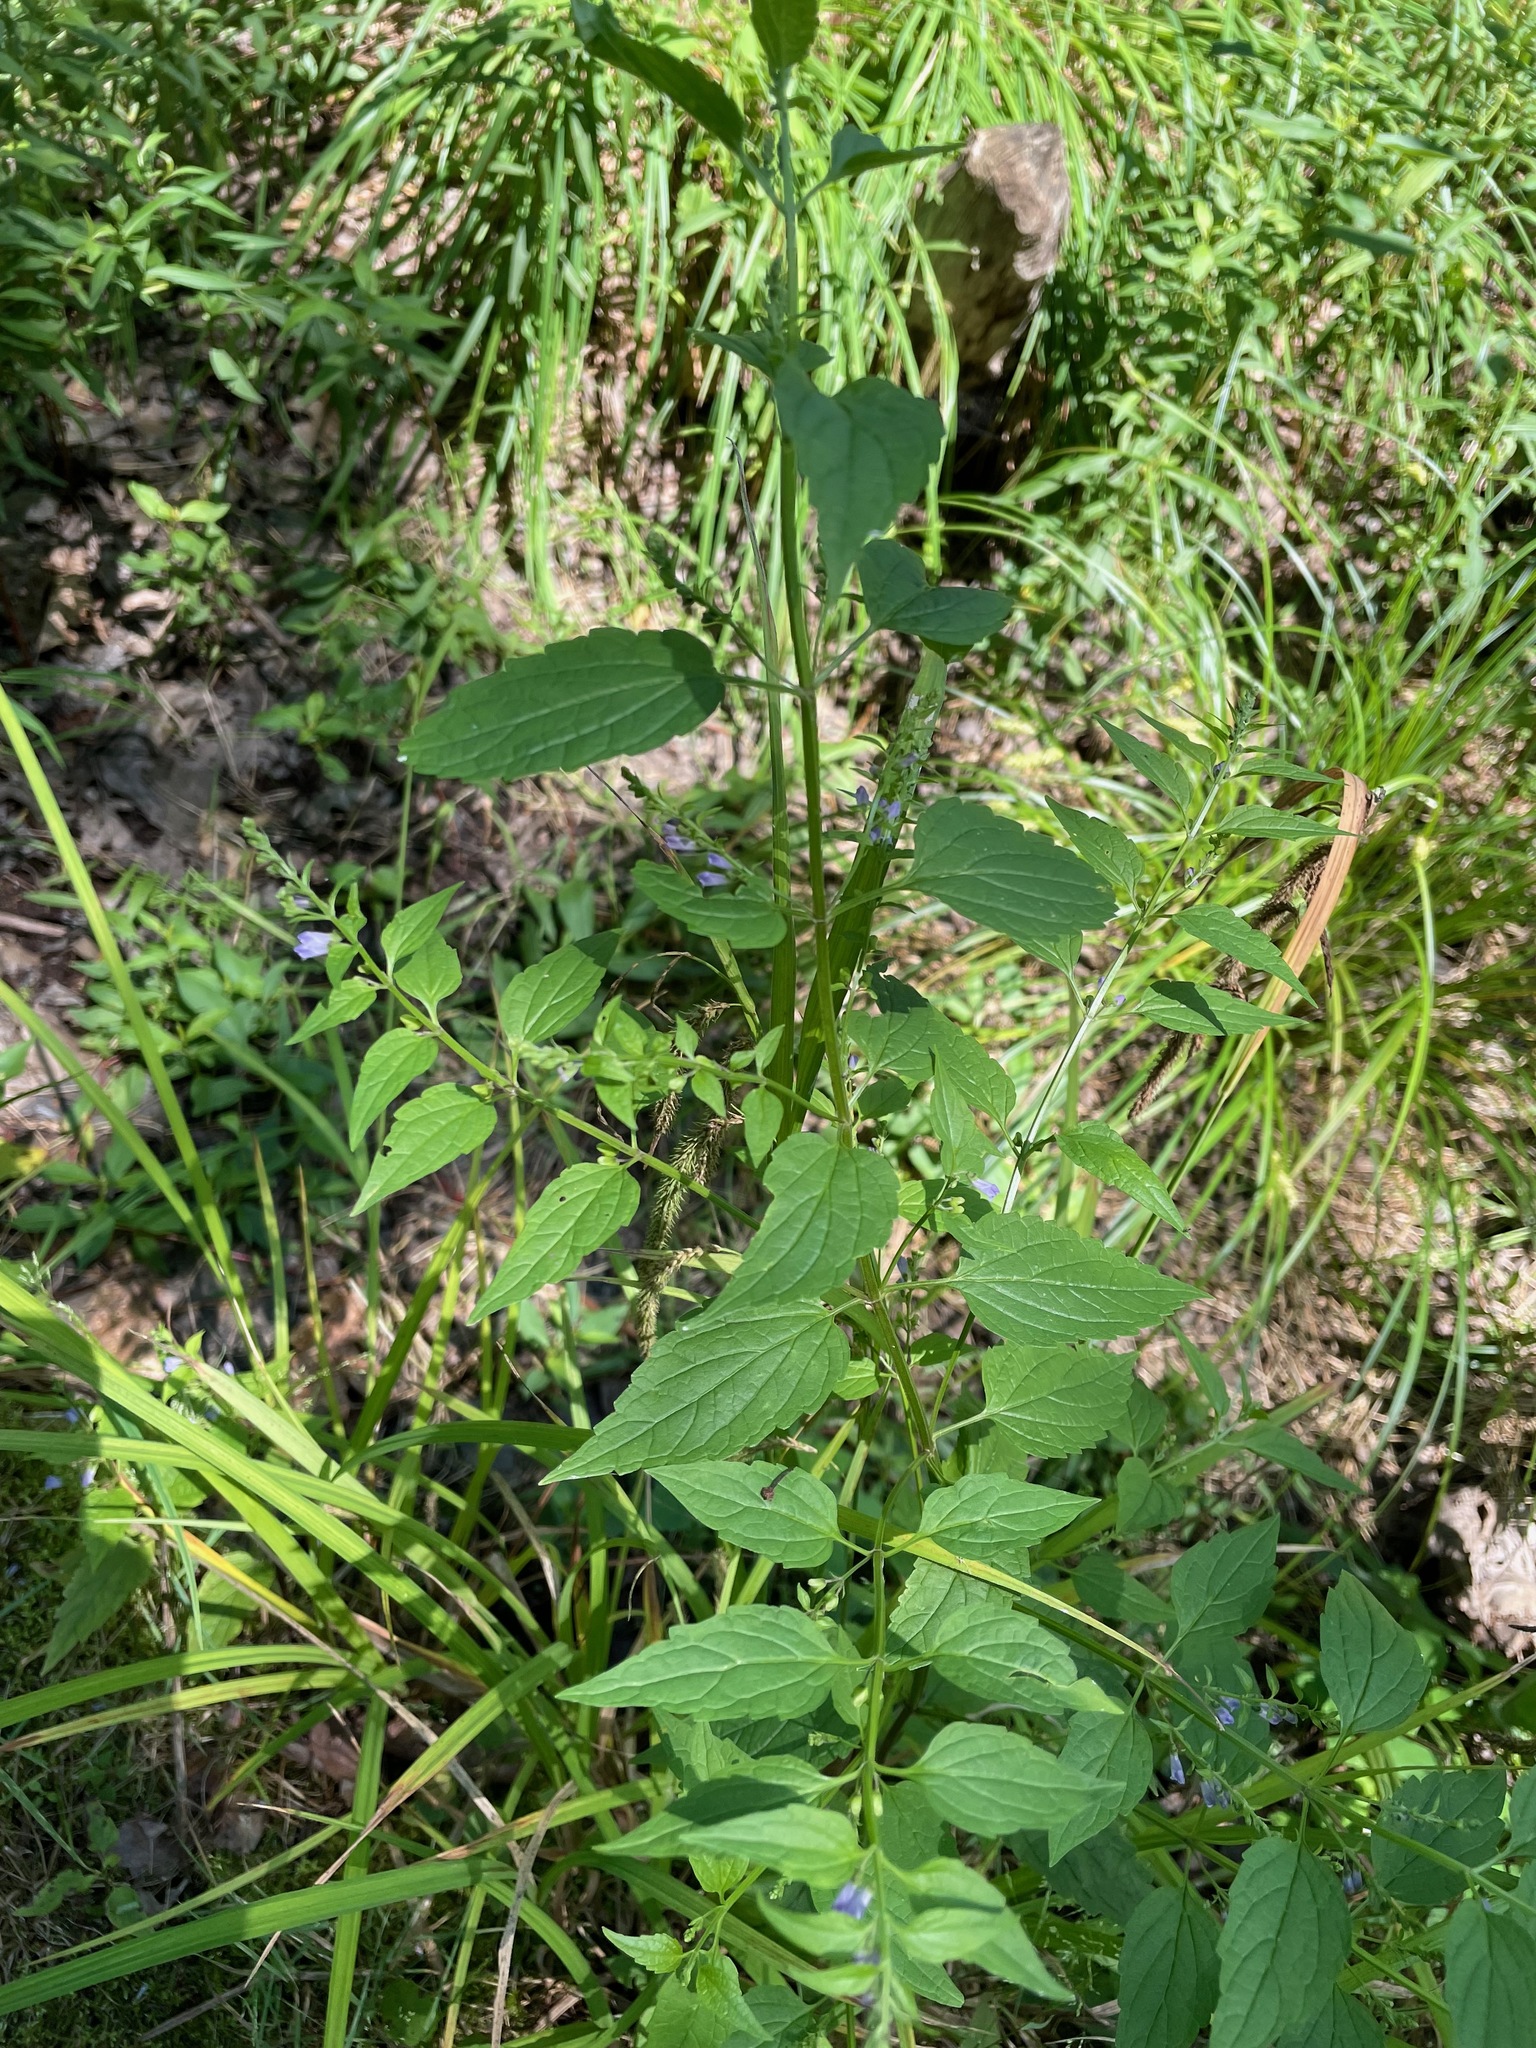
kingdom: Plantae
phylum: Tracheophyta
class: Magnoliopsida
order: Lamiales
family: Lamiaceae
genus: Scutellaria
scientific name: Scutellaria lateriflora
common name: Blue skullcap
